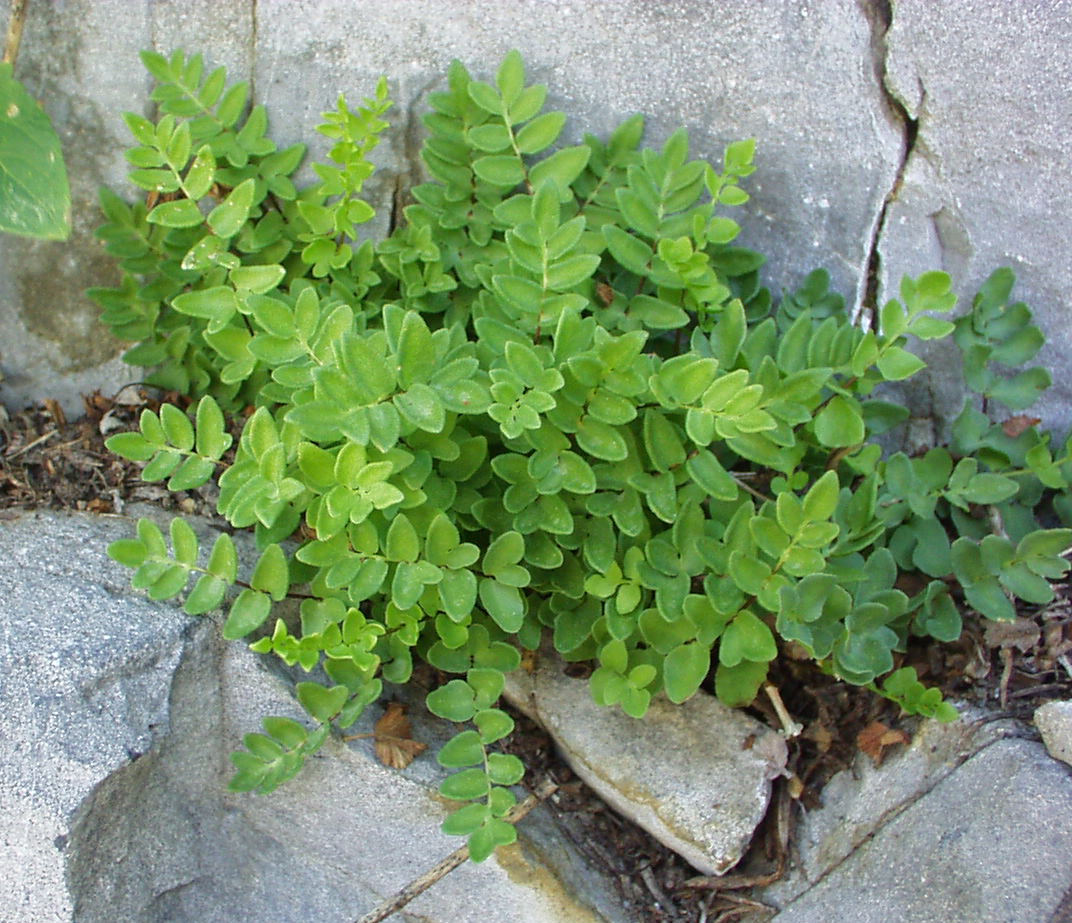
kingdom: Plantae
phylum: Tracheophyta
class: Polypodiopsida
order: Polypodiales
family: Pteridaceae
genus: Pellaea
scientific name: Pellaea breweri
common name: Brewer's cliffbrake
